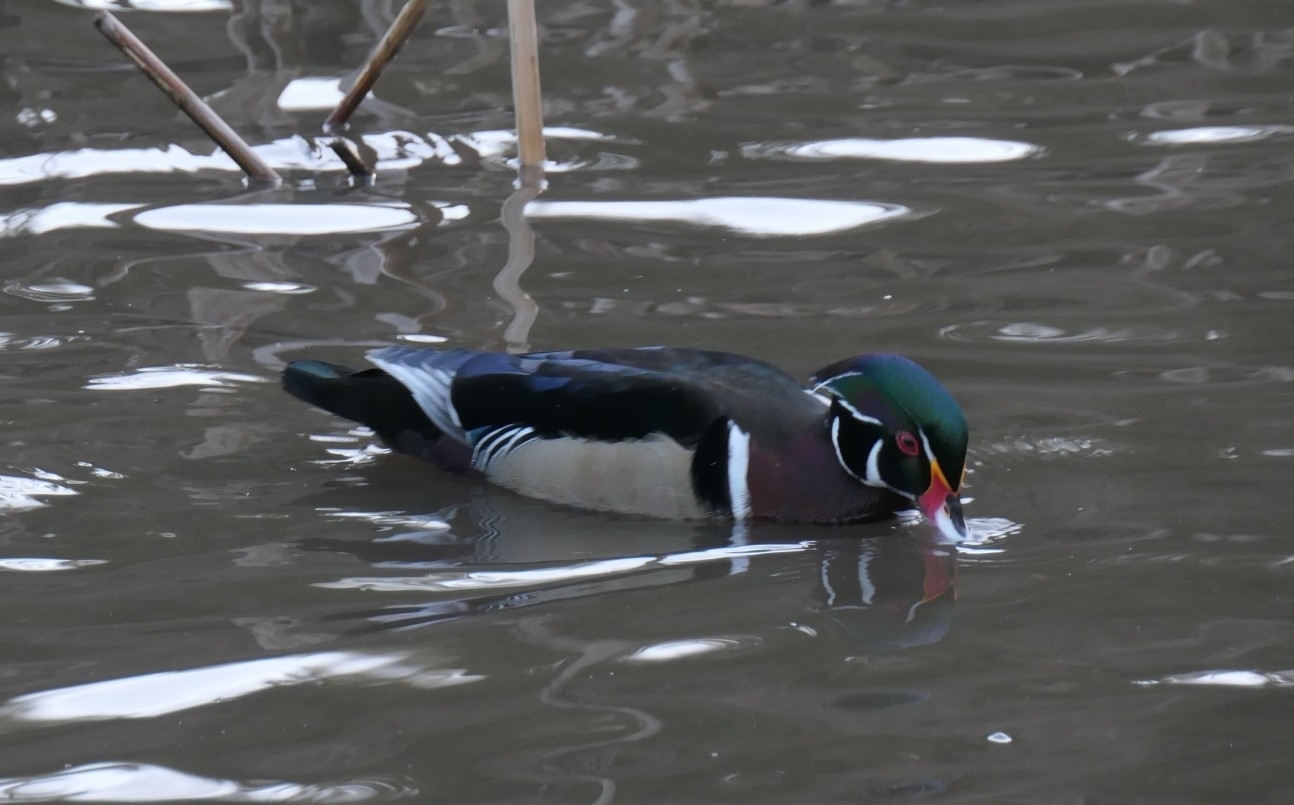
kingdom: Animalia
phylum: Chordata
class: Aves
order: Anseriformes
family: Anatidae
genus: Aix
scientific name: Aix sponsa
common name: Wood duck
